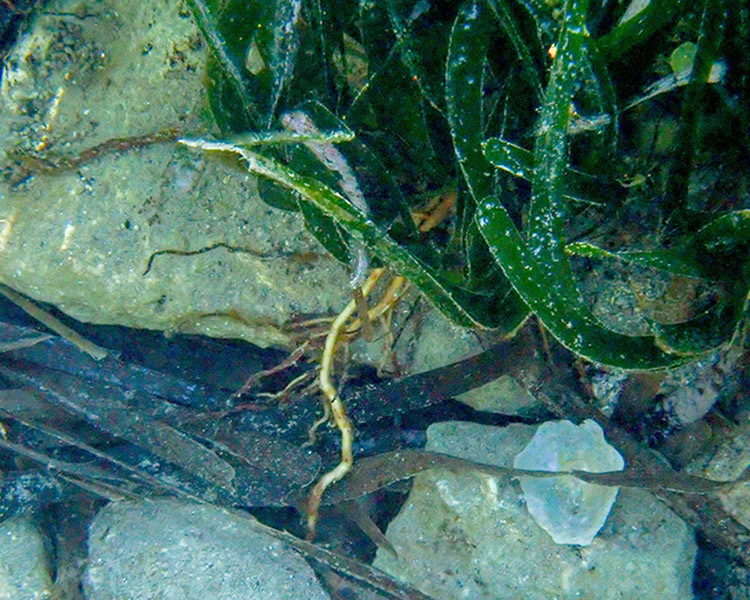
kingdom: Plantae
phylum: Tracheophyta
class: Liliopsida
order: Alismatales
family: Posidoniaceae
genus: Posidonia
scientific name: Posidonia oceanica
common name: Mediterranean tapeweed
